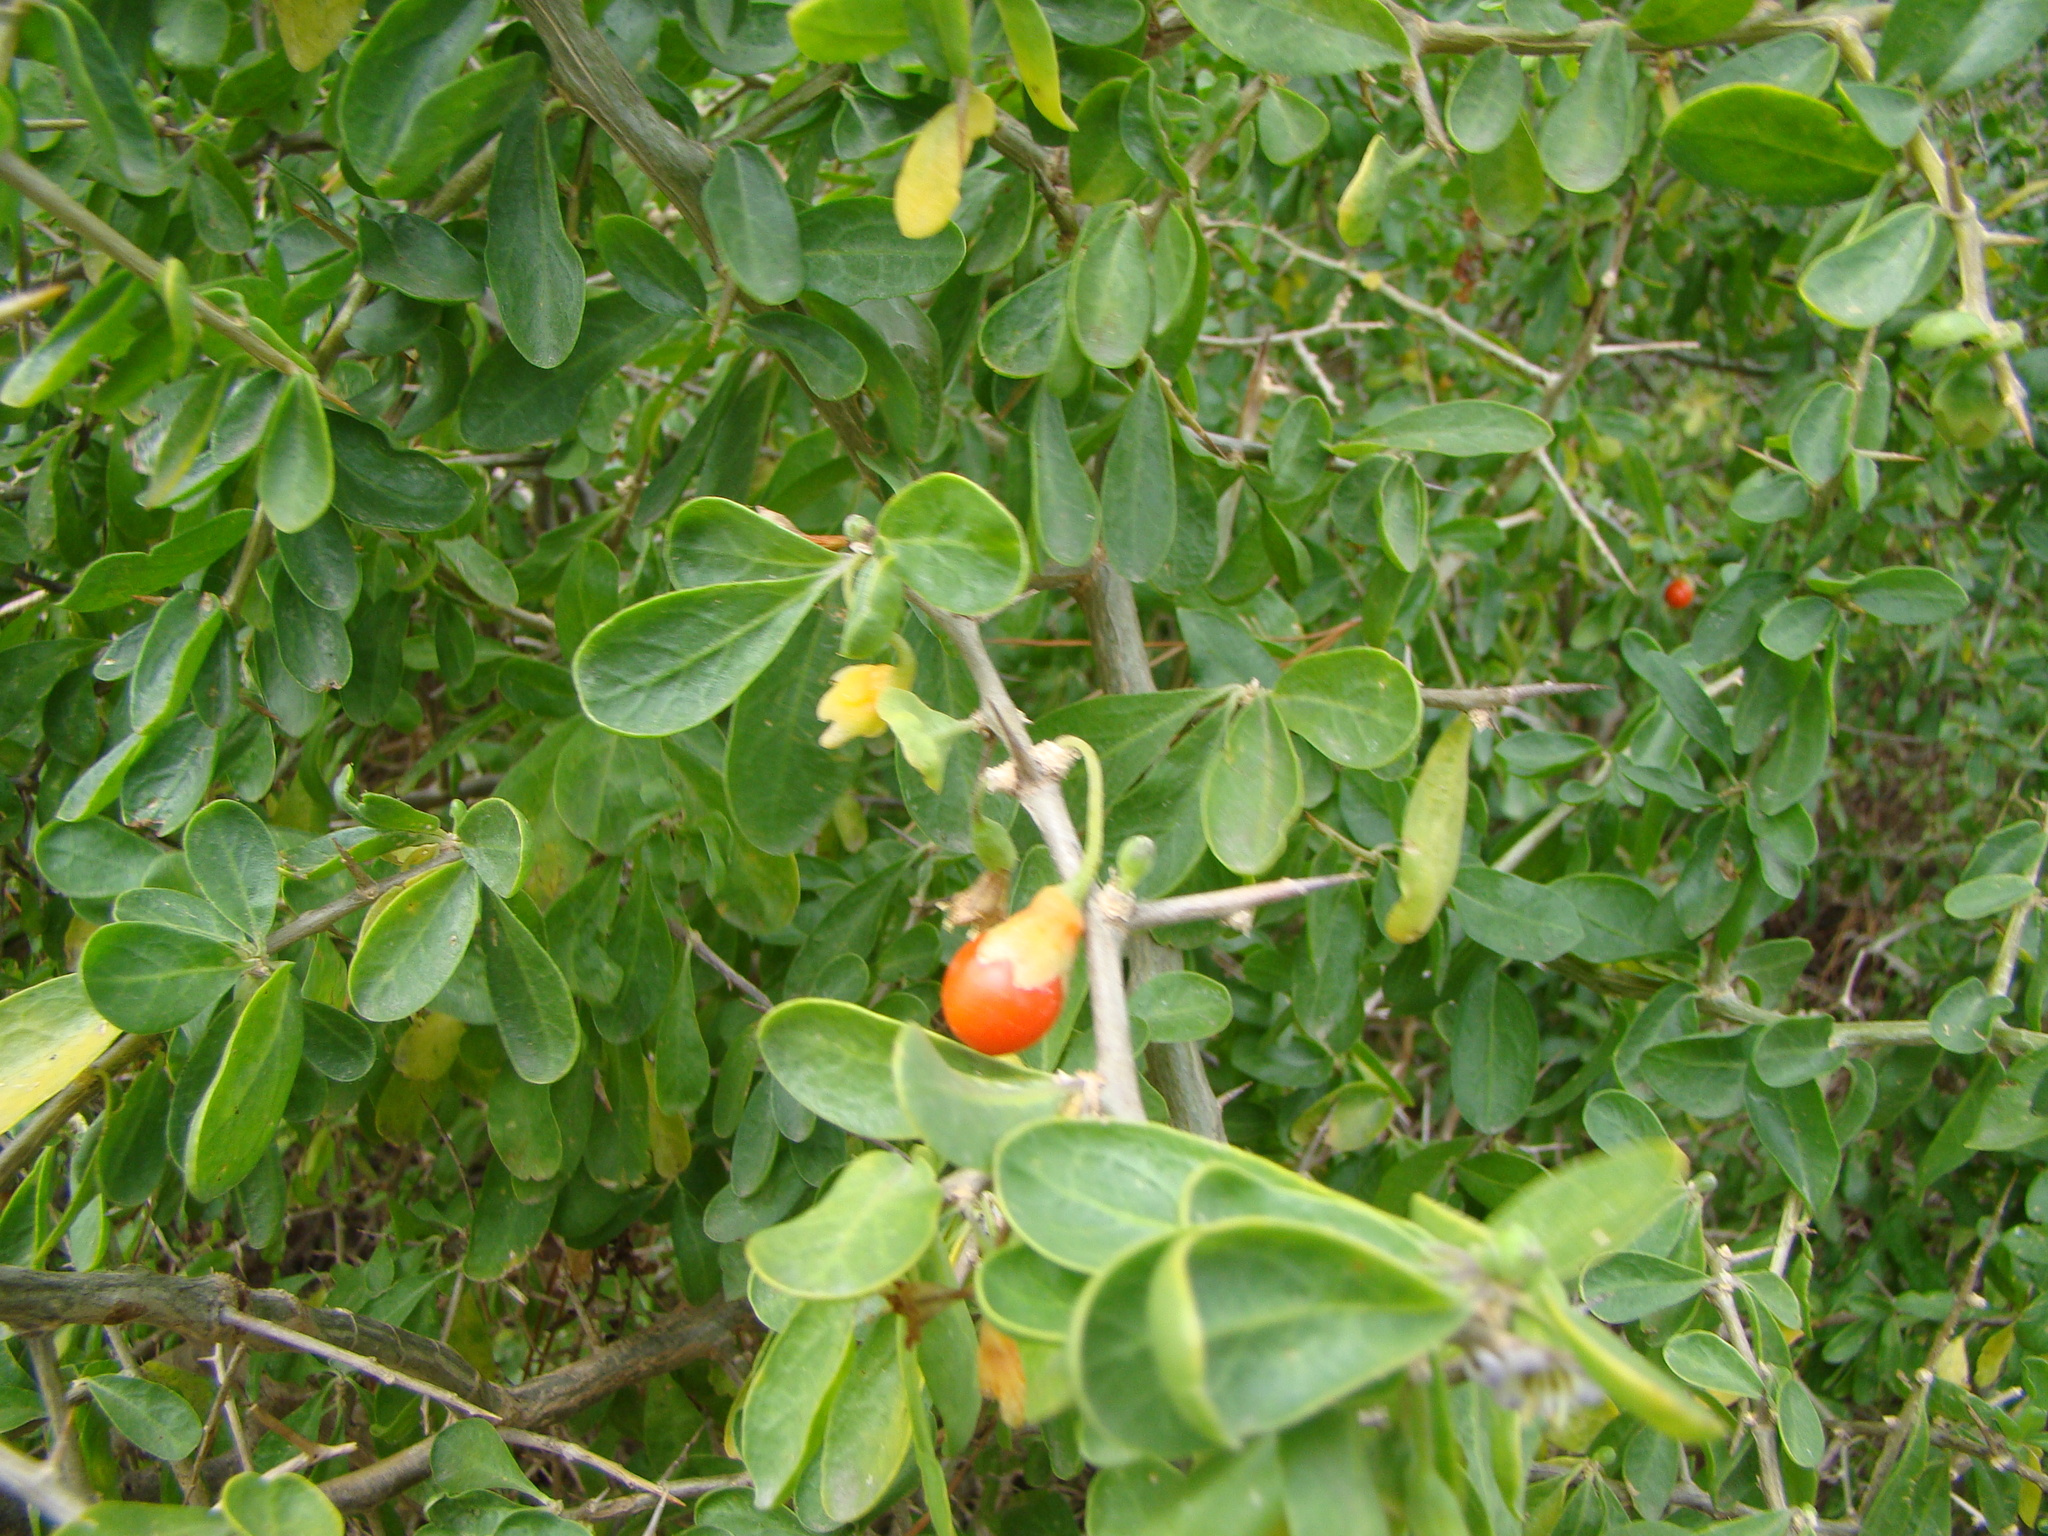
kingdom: Plantae
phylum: Tracheophyta
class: Magnoliopsida
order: Solanales
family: Solanaceae
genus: Lycium
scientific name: Lycium ferocissimum
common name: African boxthorn
